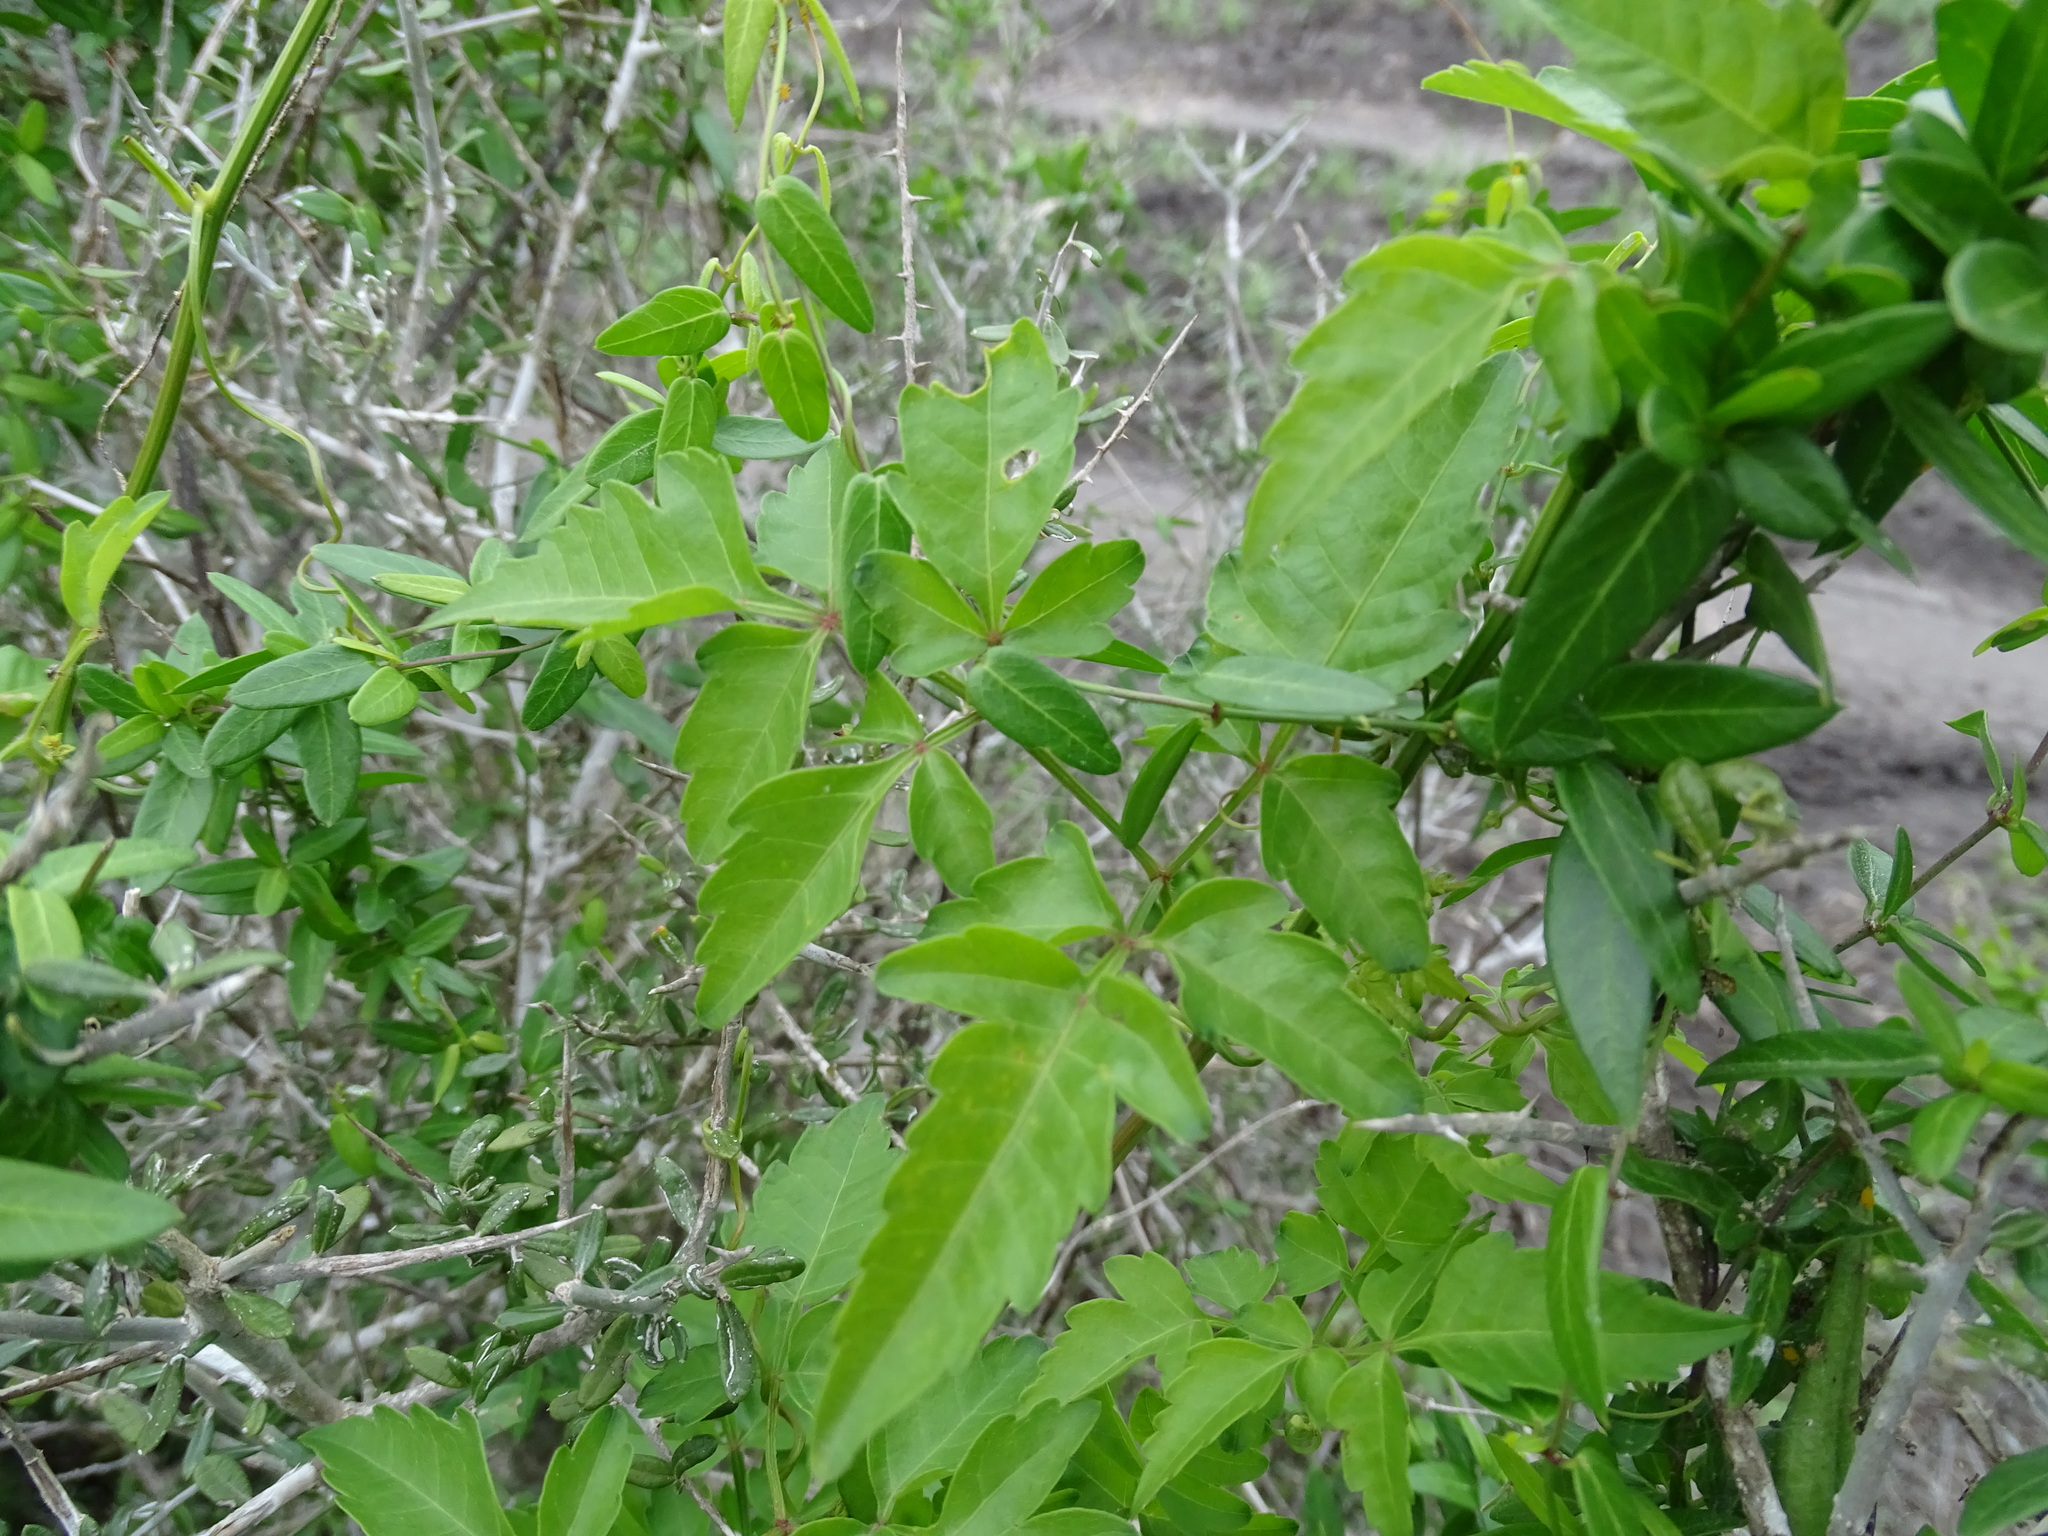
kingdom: Plantae
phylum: Tracheophyta
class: Magnoliopsida
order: Sapindales
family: Sapindaceae
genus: Serjania
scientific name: Serjania brachycarpa
